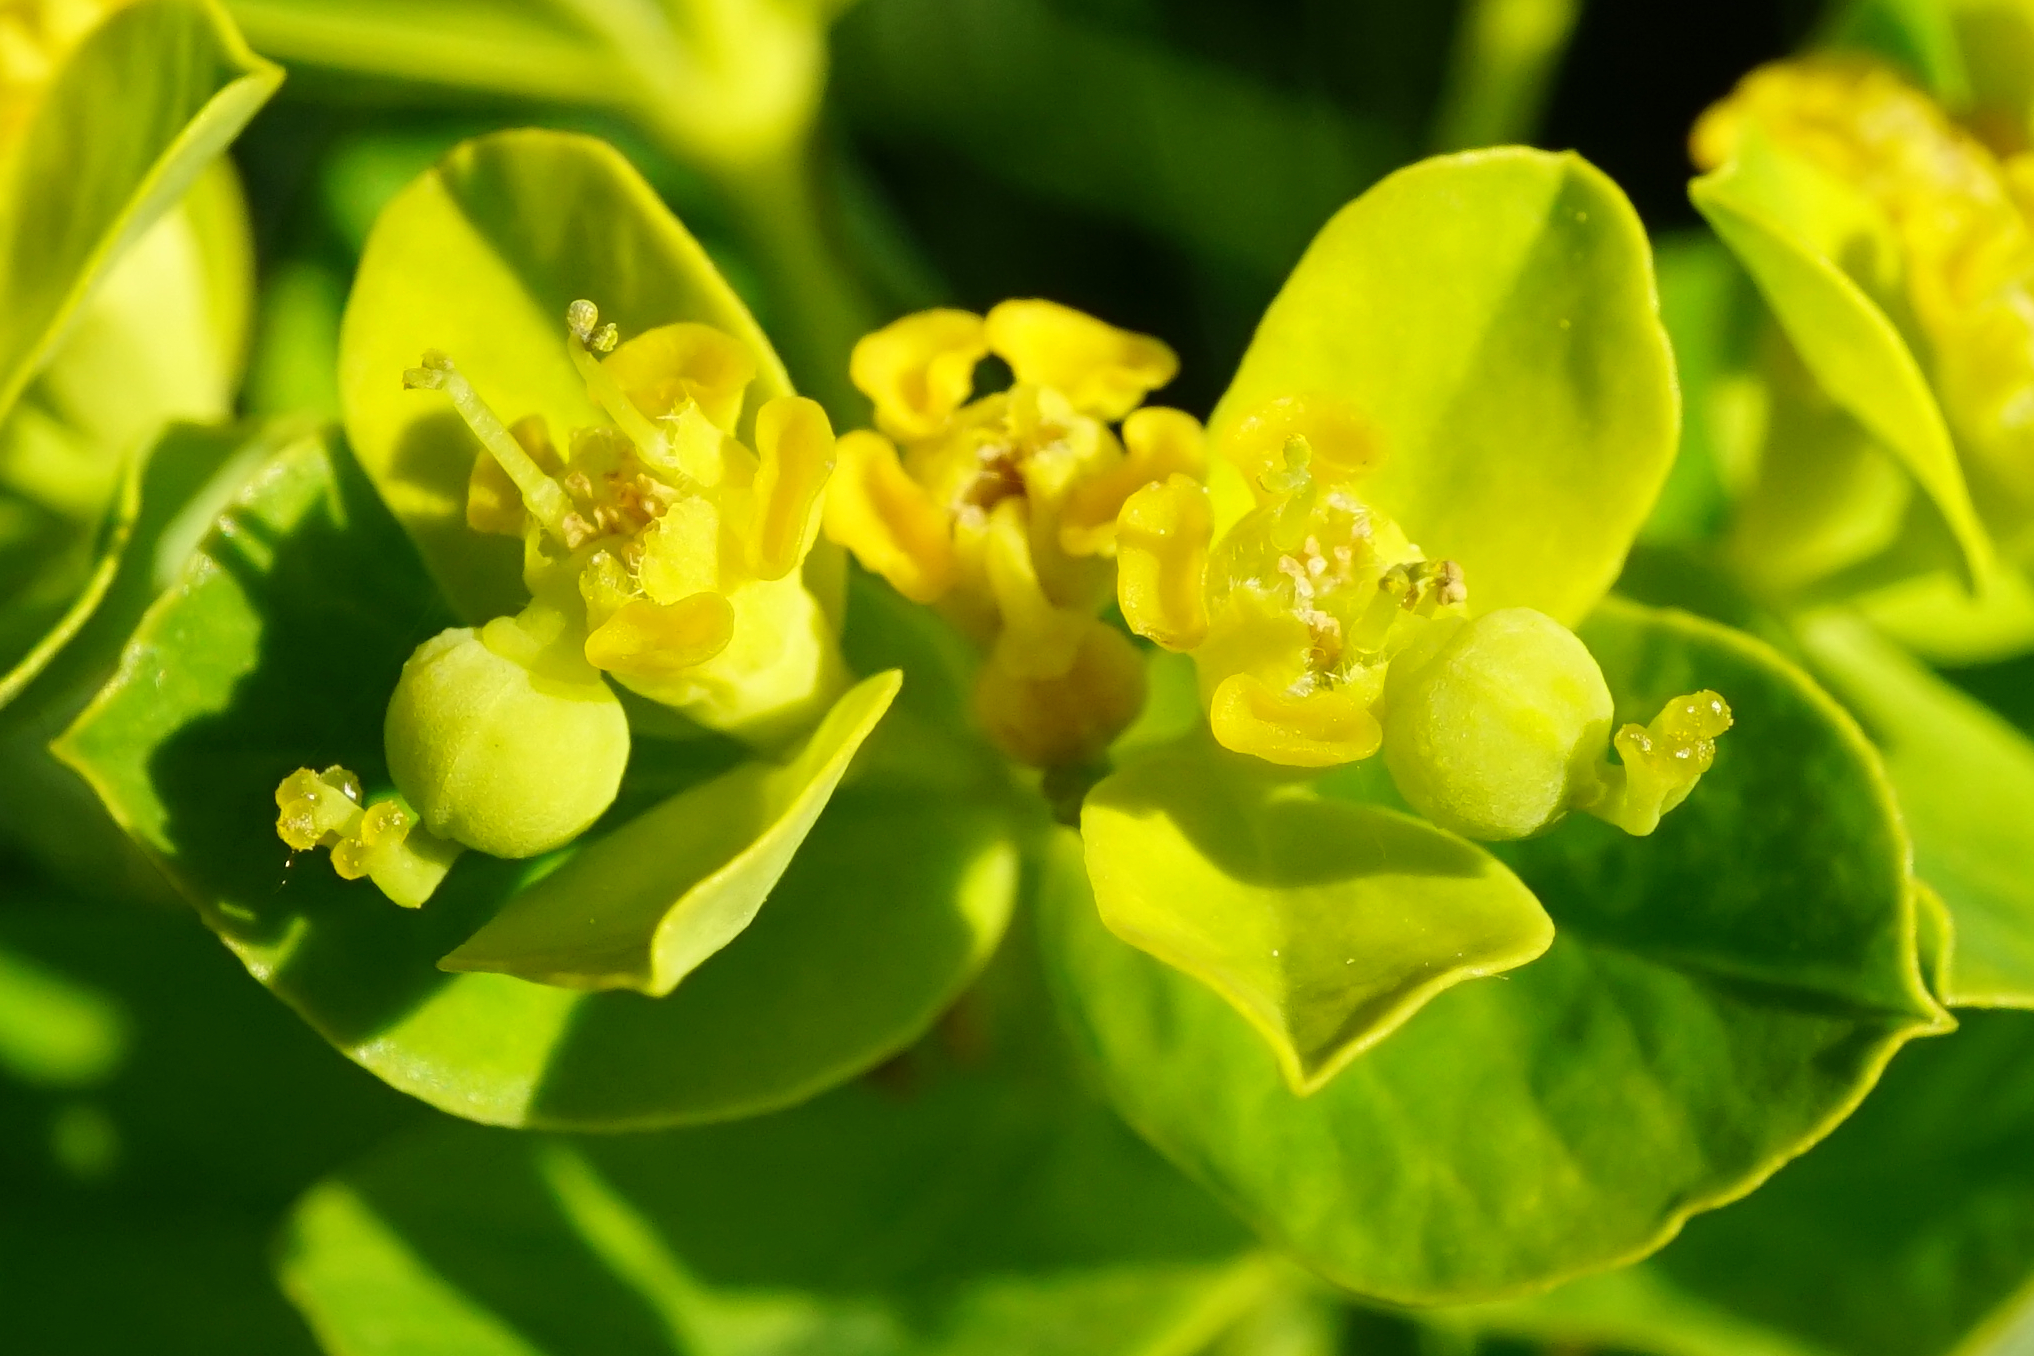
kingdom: Plantae
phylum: Tracheophyta
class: Magnoliopsida
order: Malpighiales
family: Euphorbiaceae
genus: Euphorbia
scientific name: Euphorbia illirica
